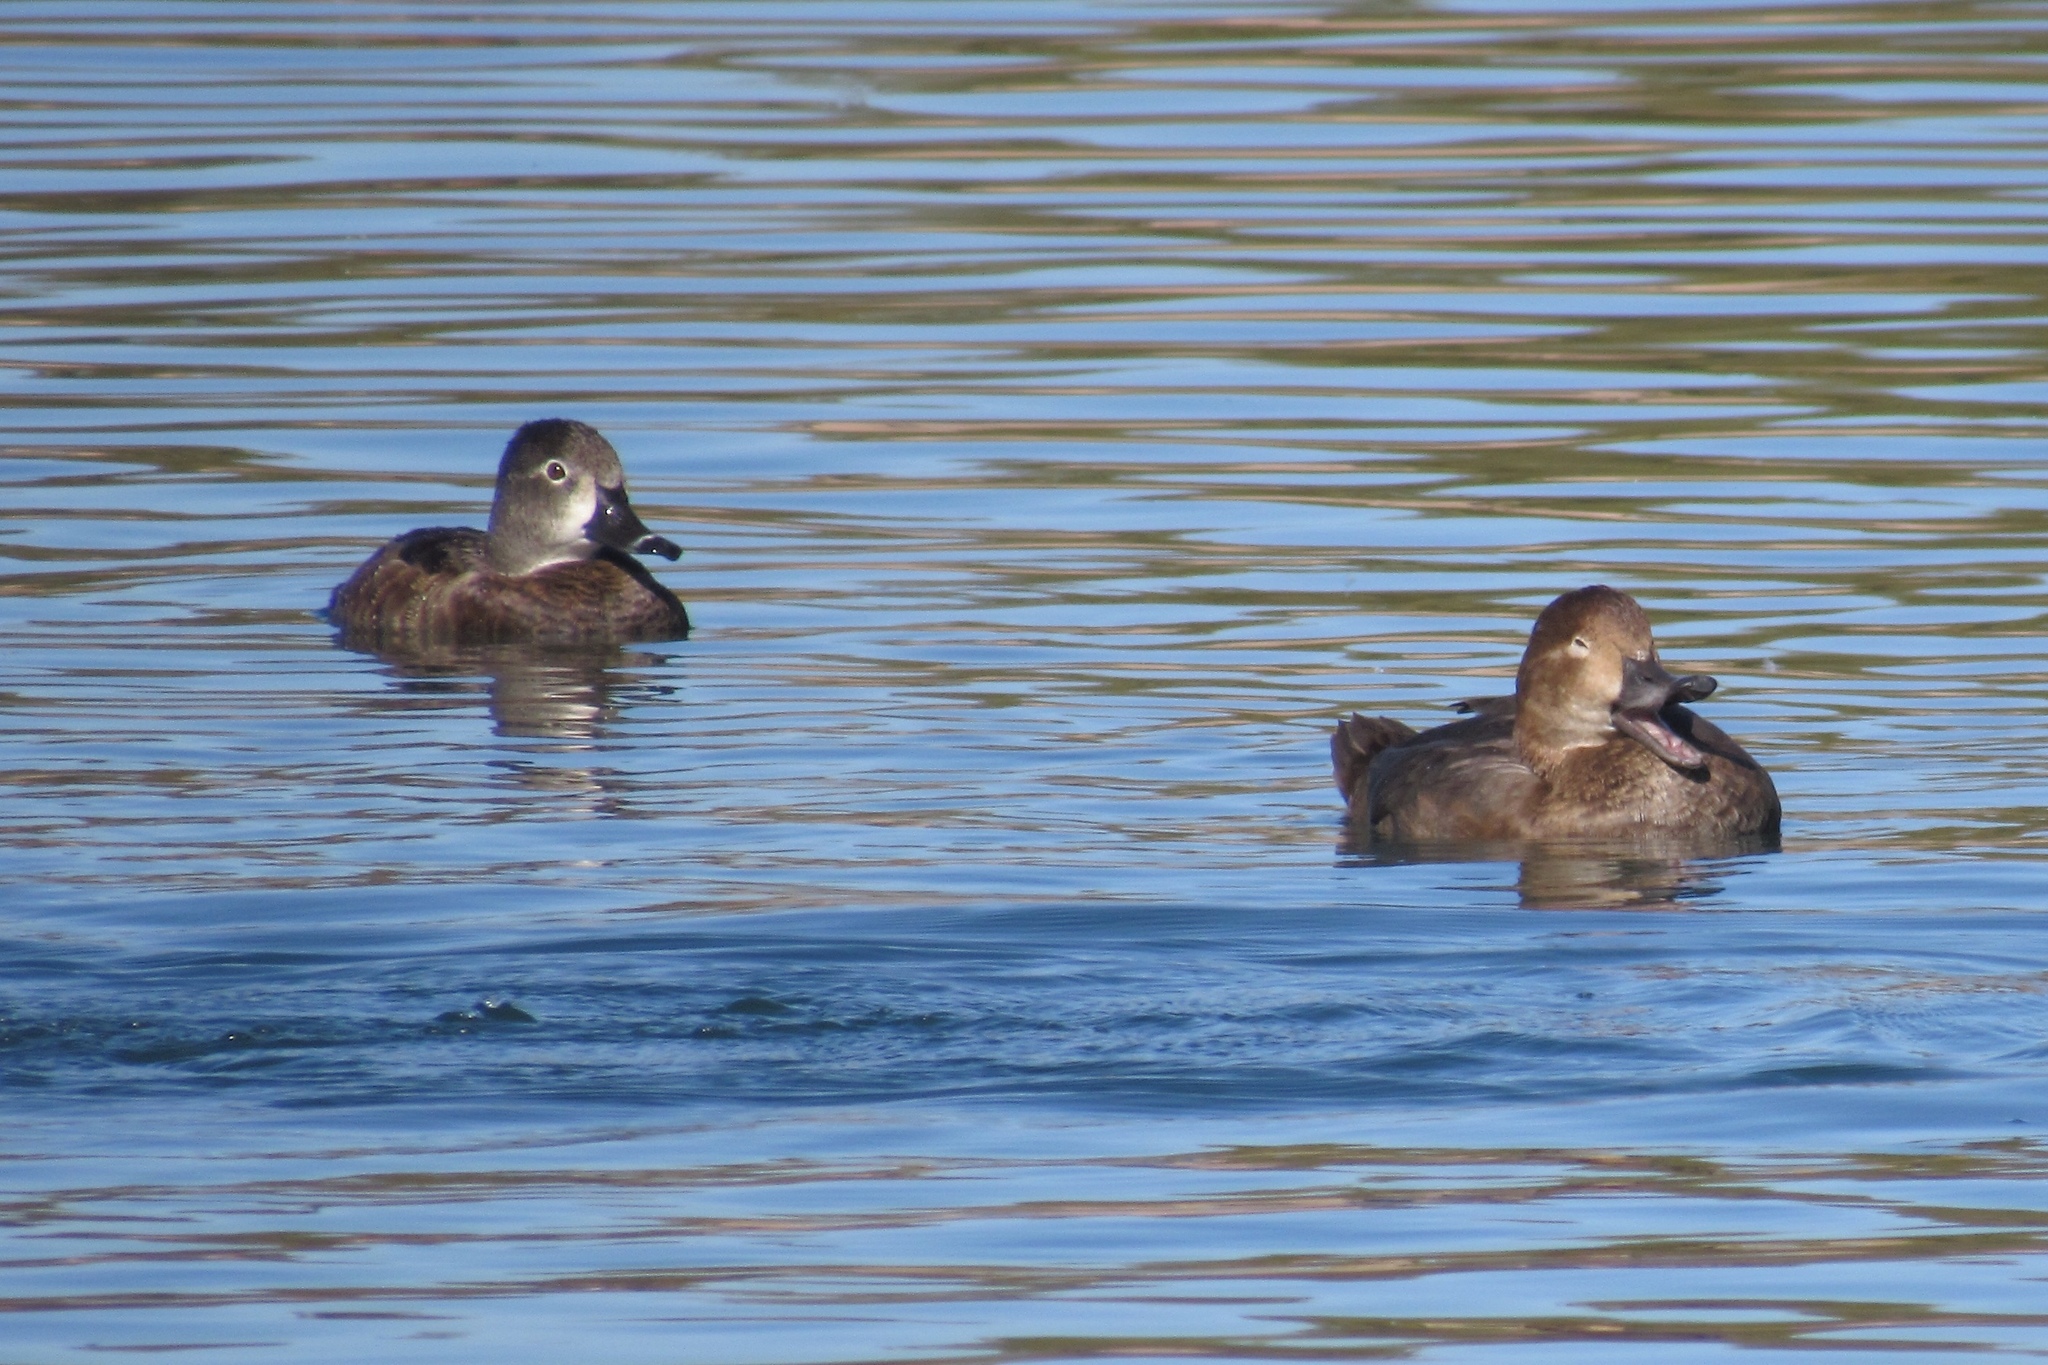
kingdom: Animalia
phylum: Chordata
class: Aves
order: Anseriformes
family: Anatidae
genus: Aythya
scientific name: Aythya collaris
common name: Ring-necked duck
